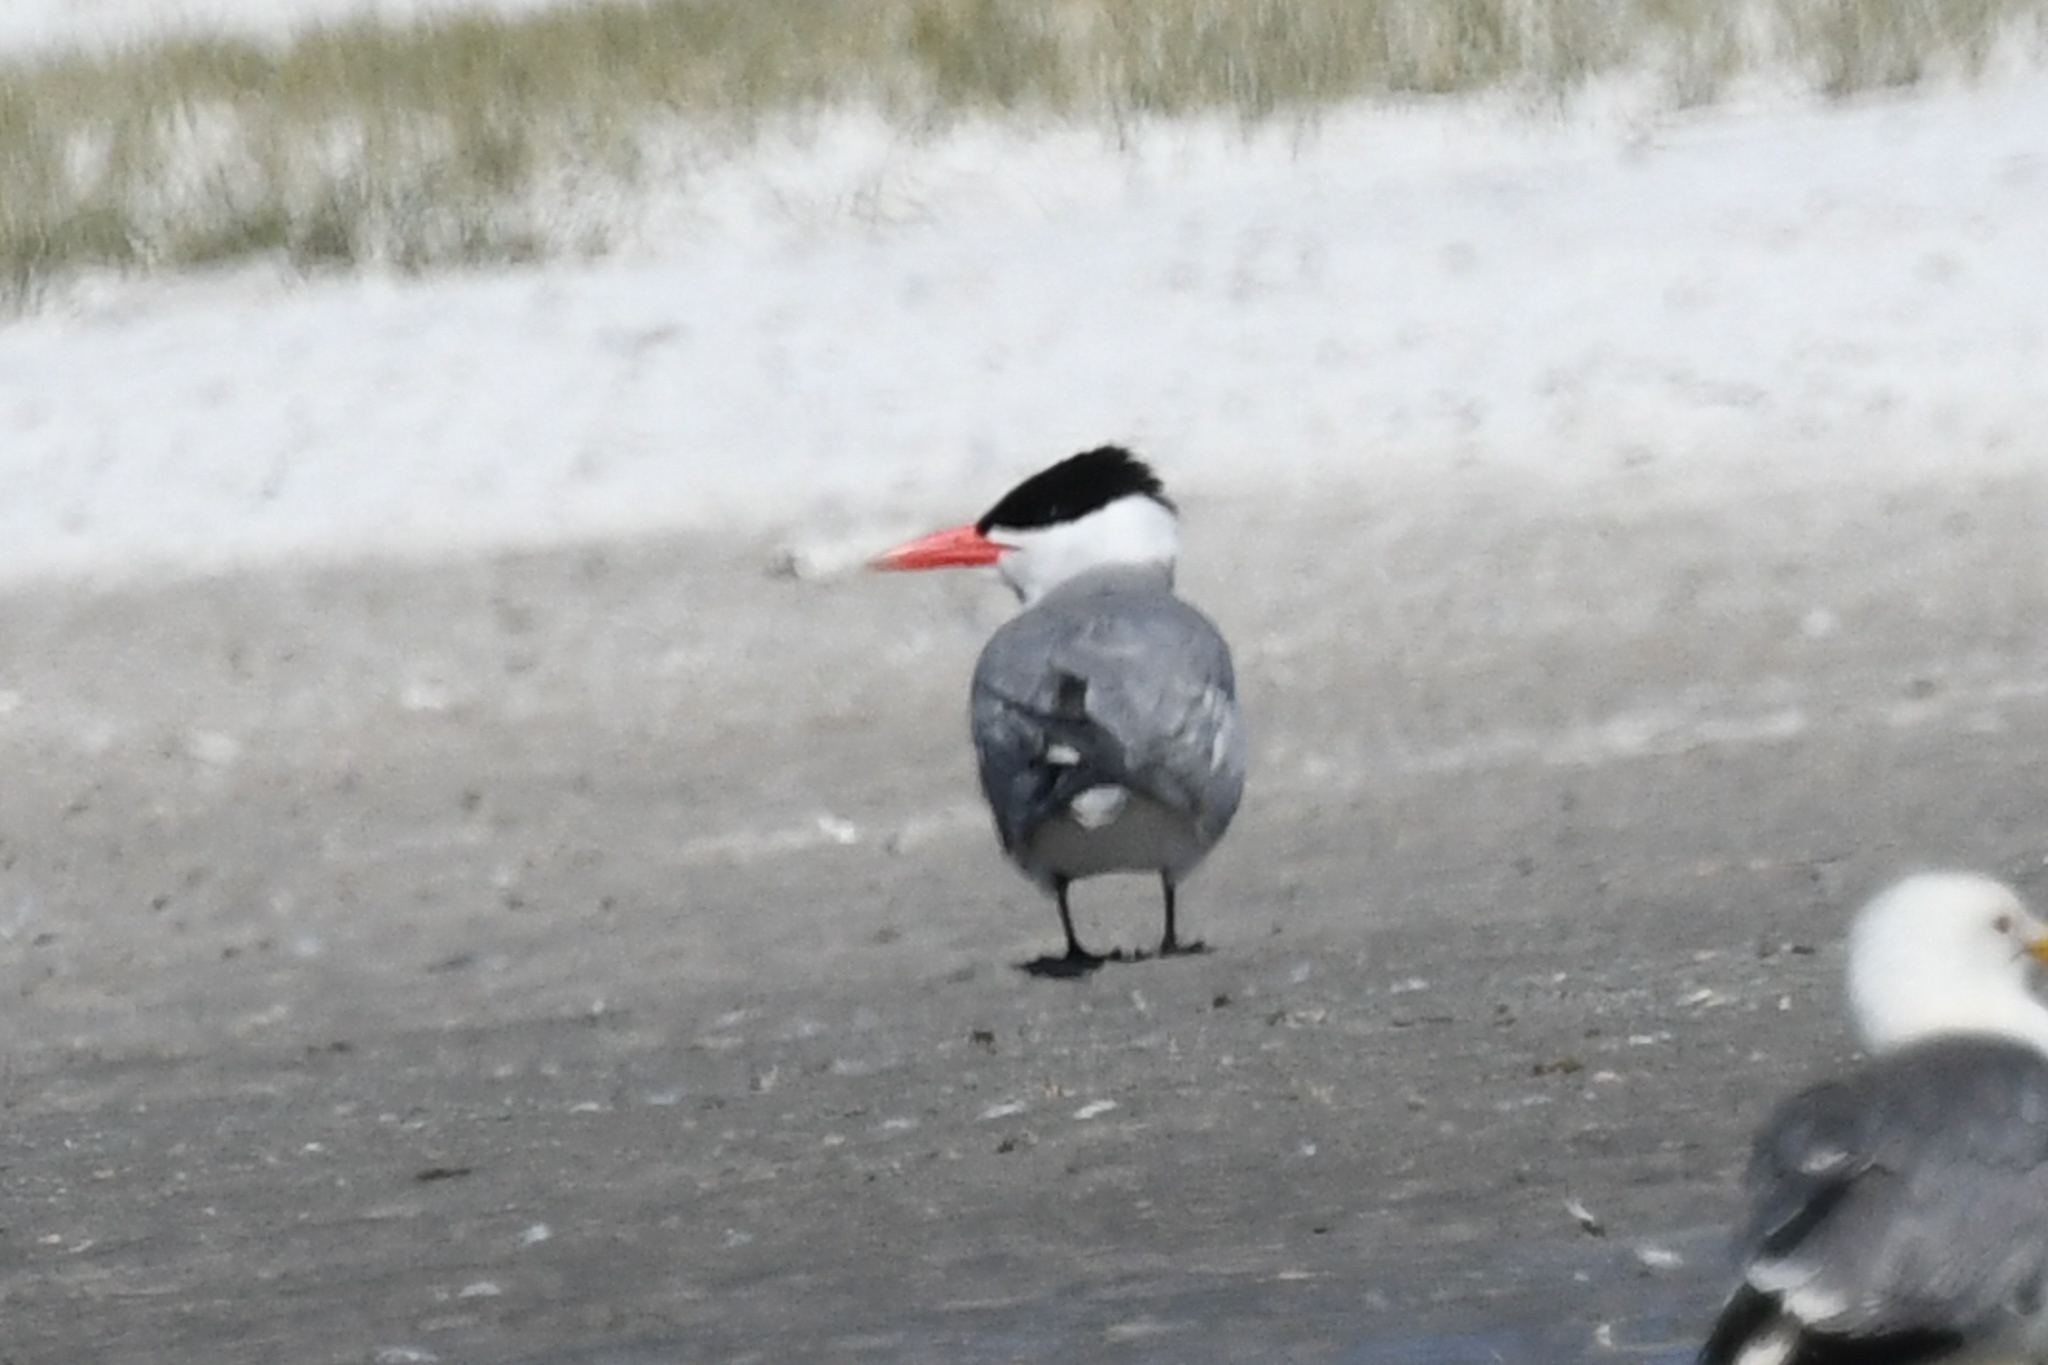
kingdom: Animalia
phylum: Chordata
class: Aves
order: Charadriiformes
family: Laridae
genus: Hydroprogne
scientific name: Hydroprogne caspia
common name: Caspian tern
